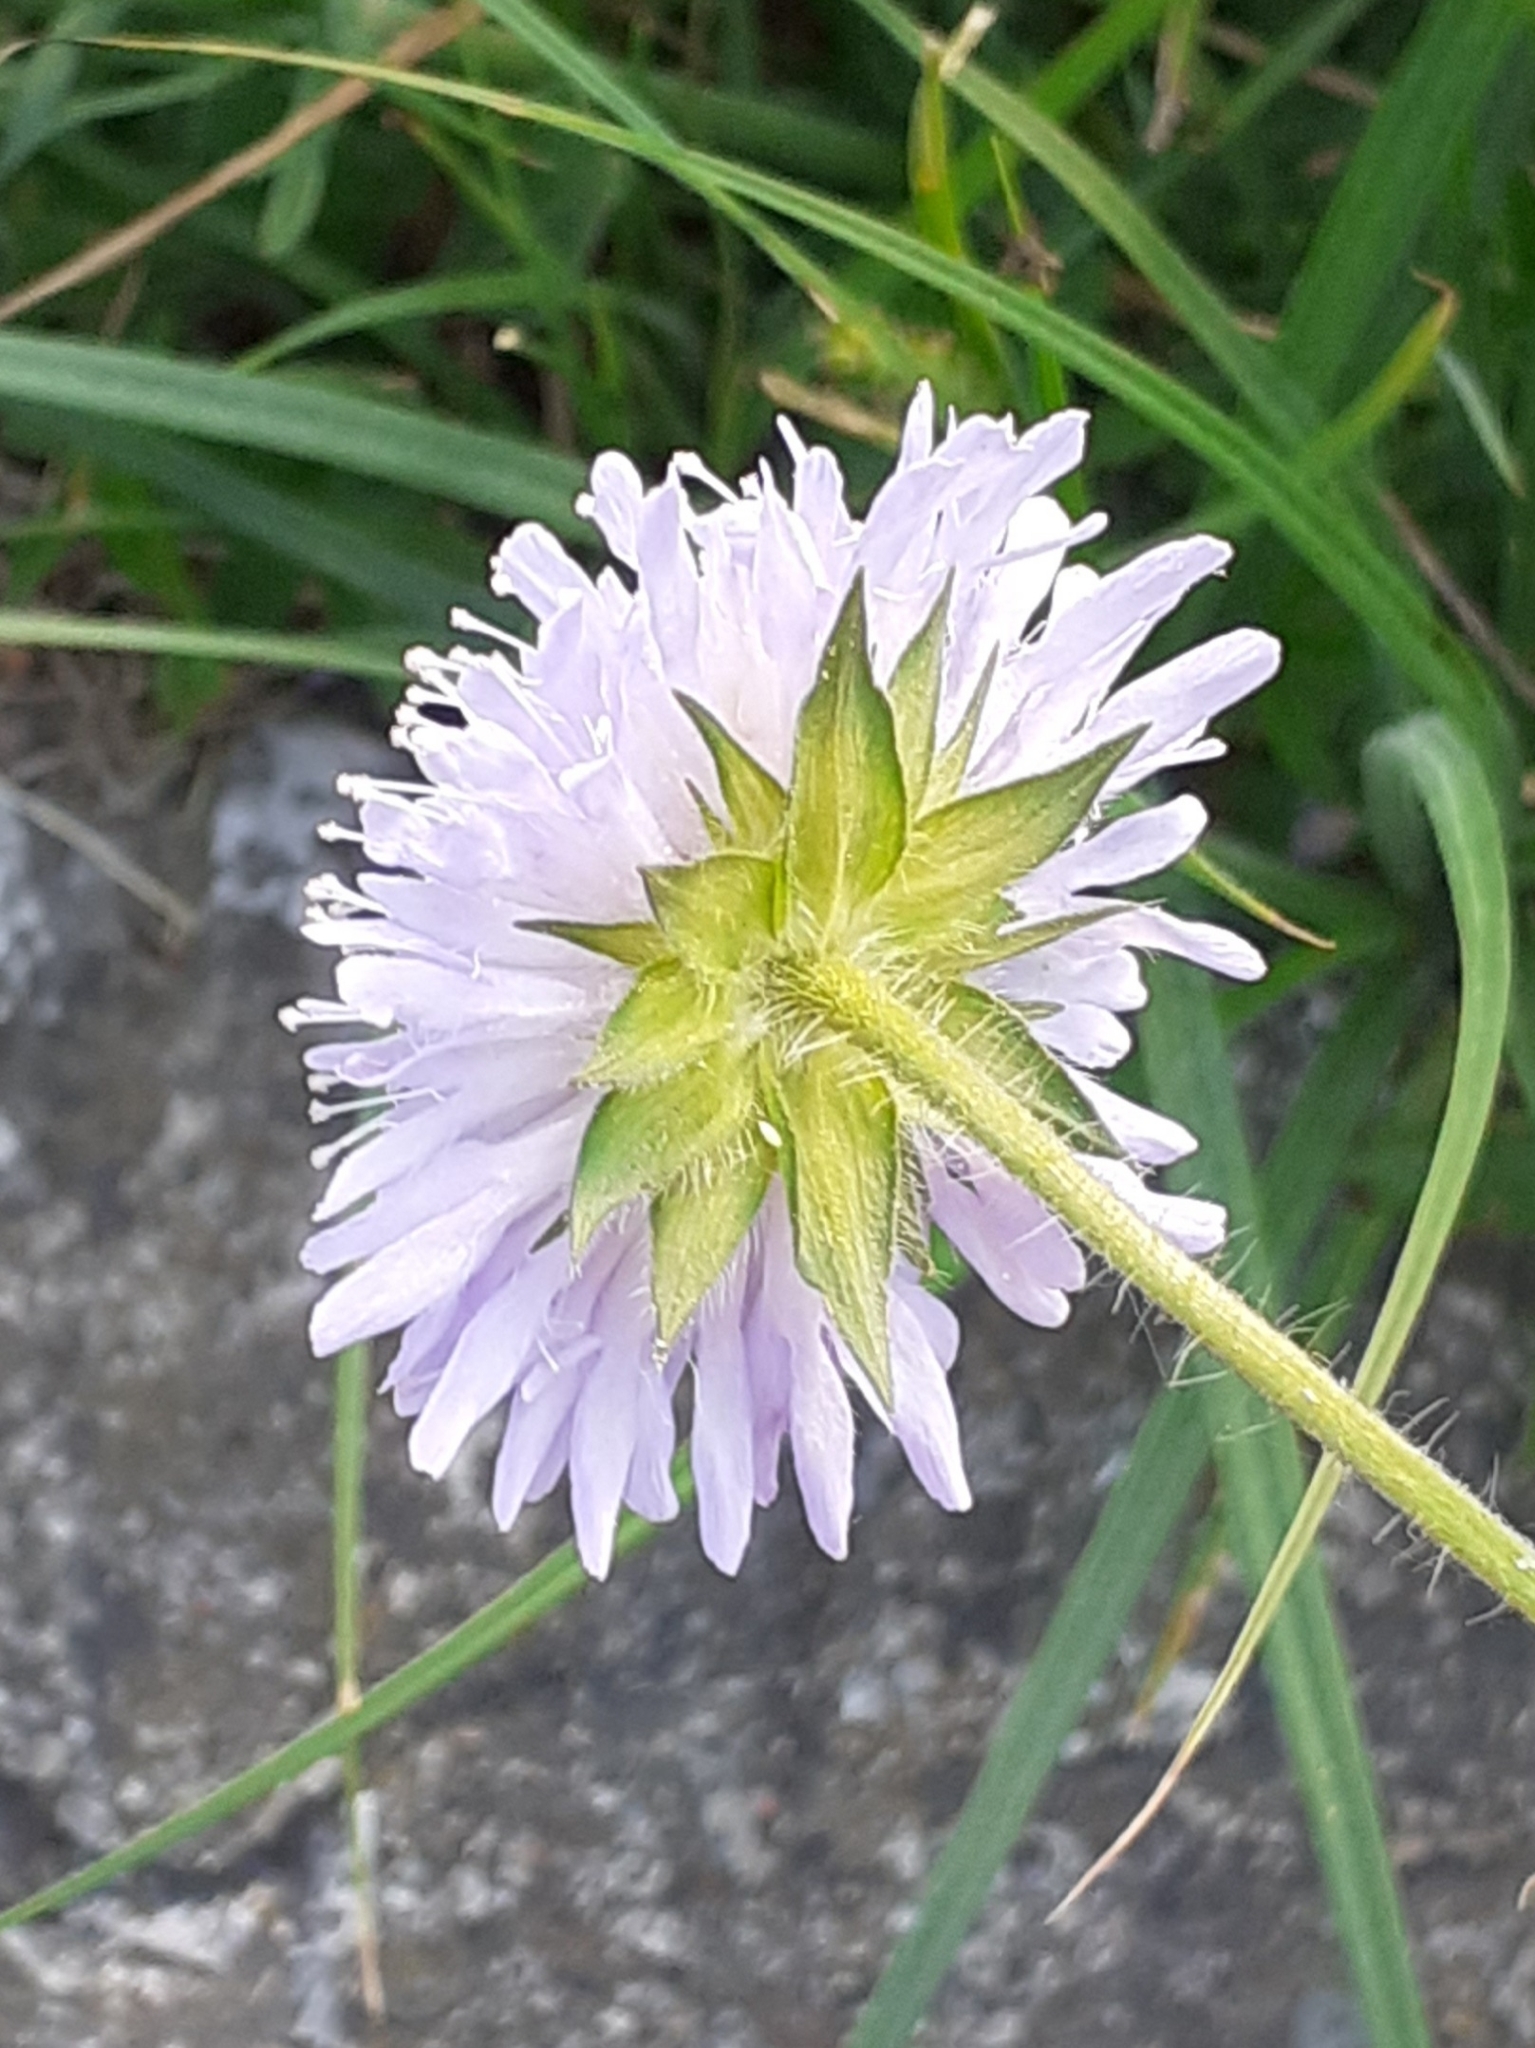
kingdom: Plantae
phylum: Tracheophyta
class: Magnoliopsida
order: Dipsacales
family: Caprifoliaceae
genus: Knautia
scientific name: Knautia arvensis
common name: Field scabiosa
